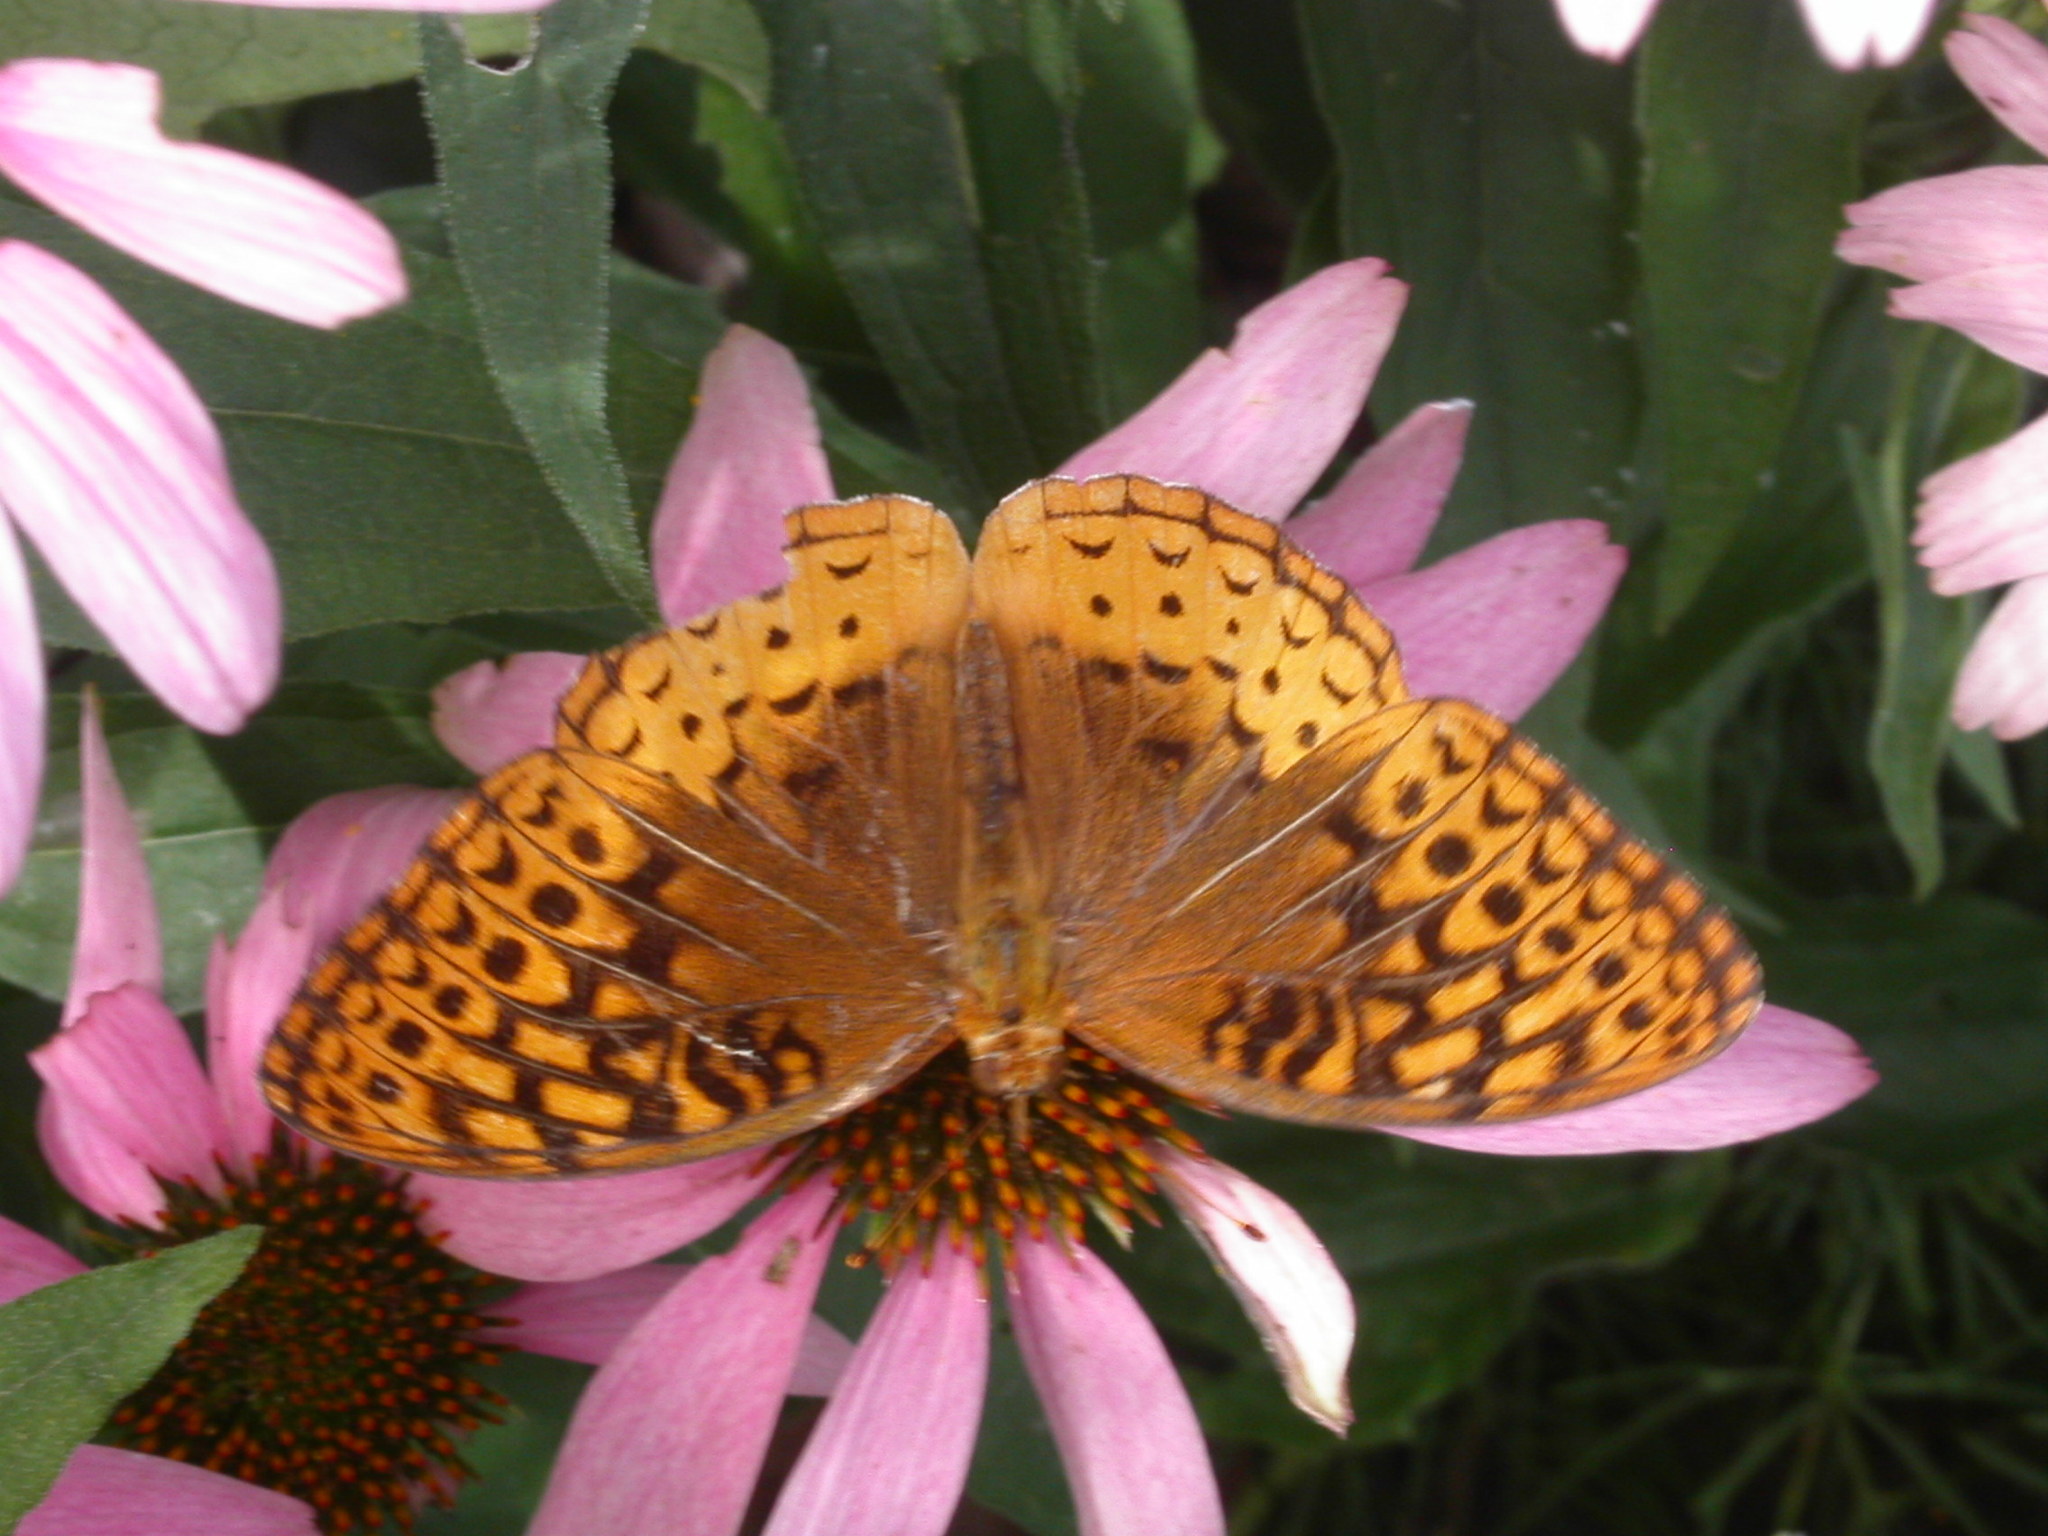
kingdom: Animalia
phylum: Arthropoda
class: Insecta
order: Lepidoptera
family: Nymphalidae
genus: Speyeria
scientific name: Speyeria cybele
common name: Great spangled fritillary
